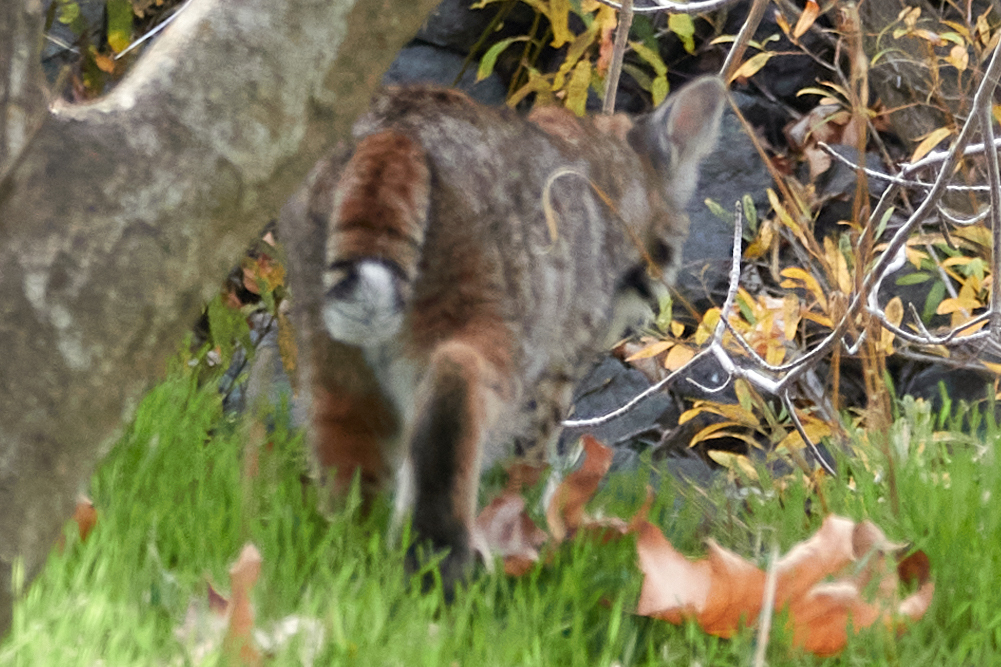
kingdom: Animalia
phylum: Chordata
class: Mammalia
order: Carnivora
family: Felidae
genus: Lynx
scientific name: Lynx rufus
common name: Bobcat
